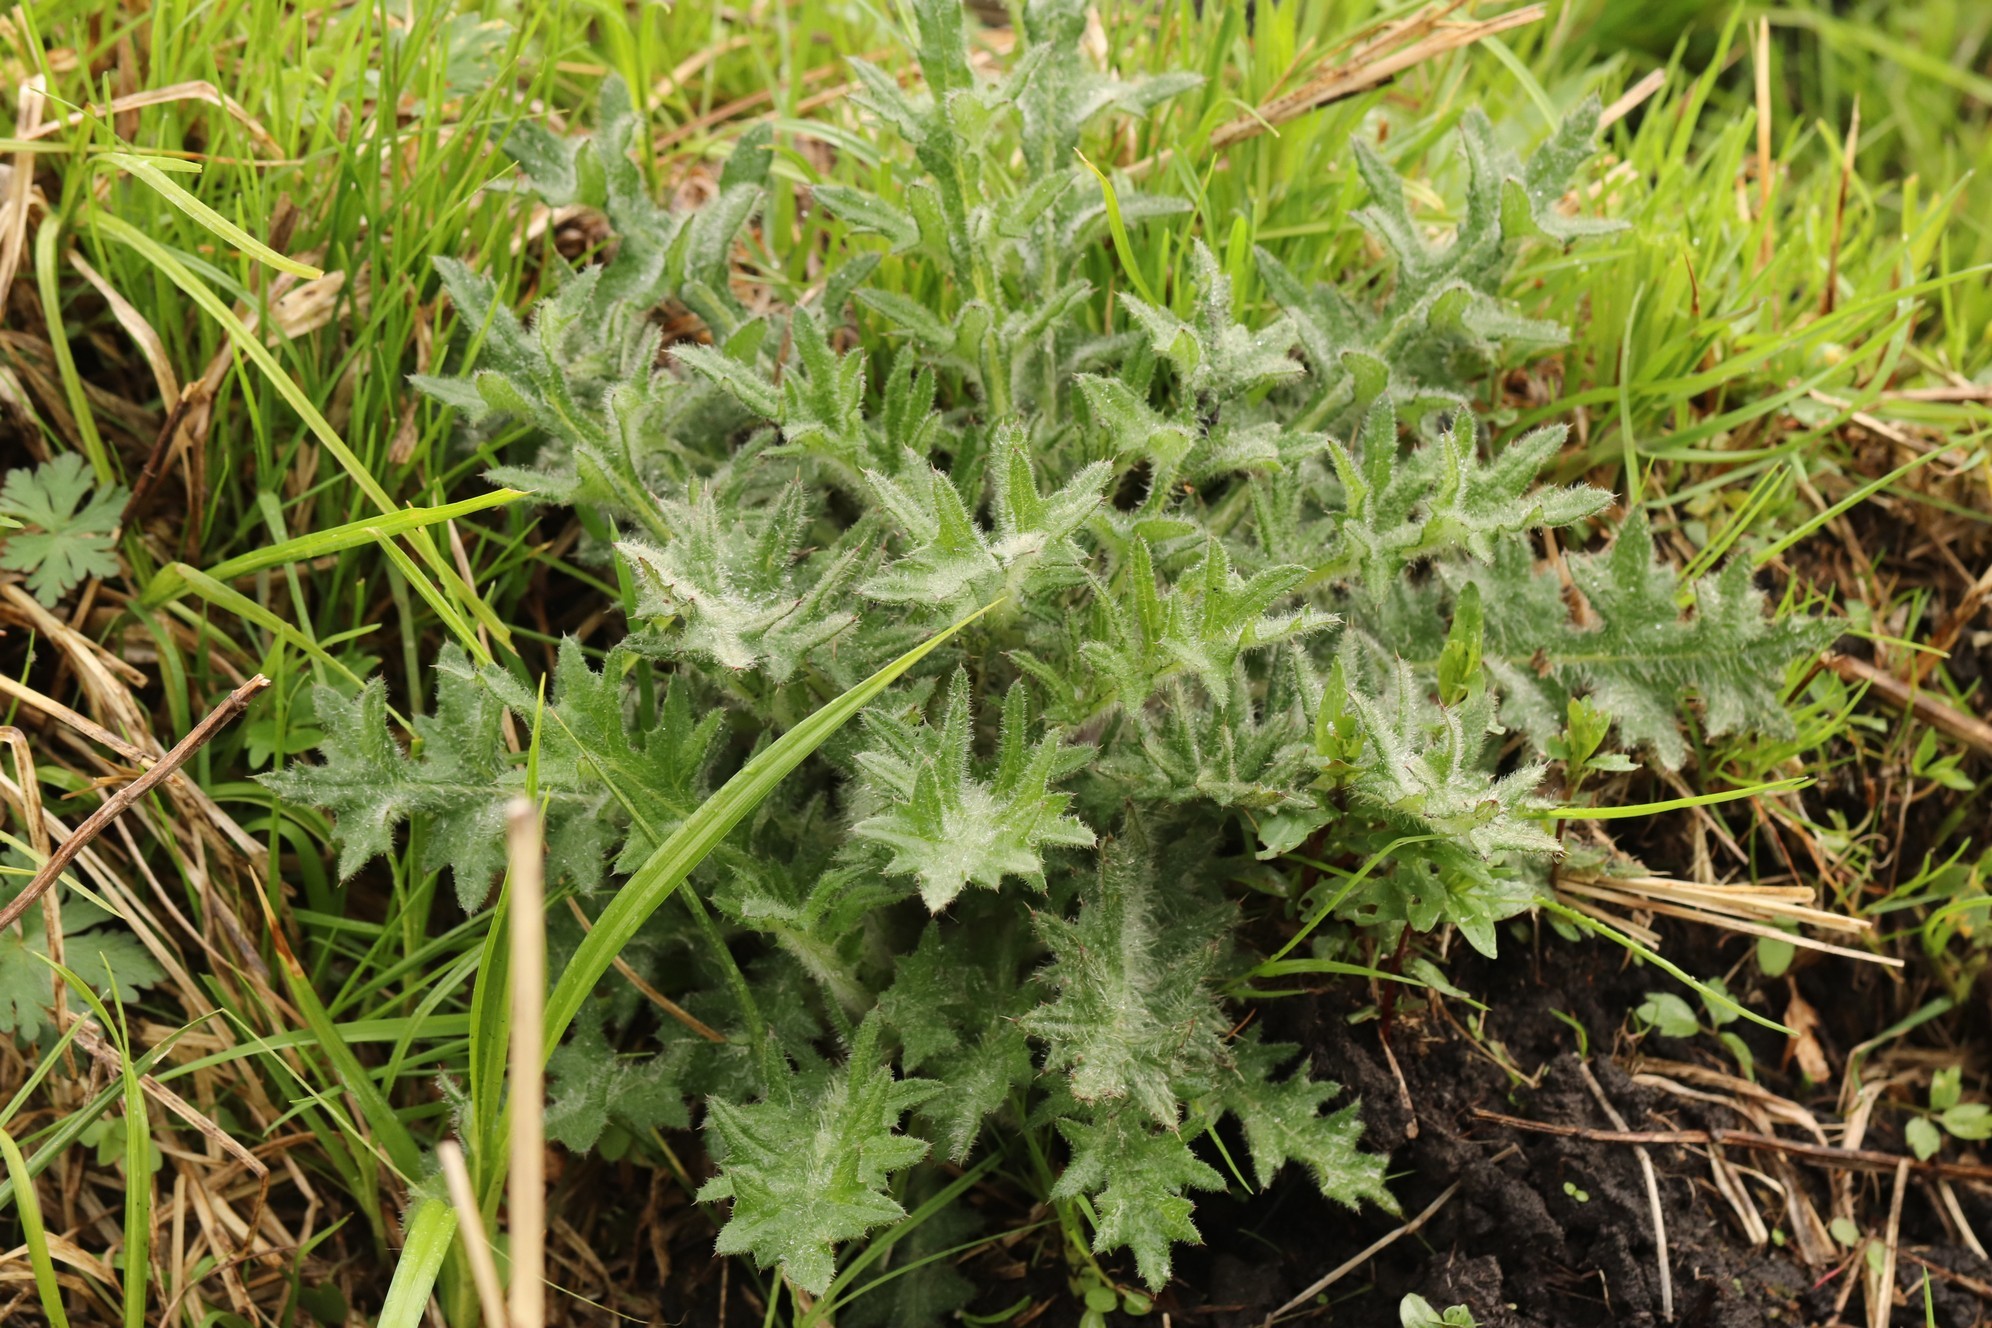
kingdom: Plantae
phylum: Tracheophyta
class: Magnoliopsida
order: Asterales
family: Asteraceae
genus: Cirsium
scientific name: Cirsium vulgare
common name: Bull thistle
